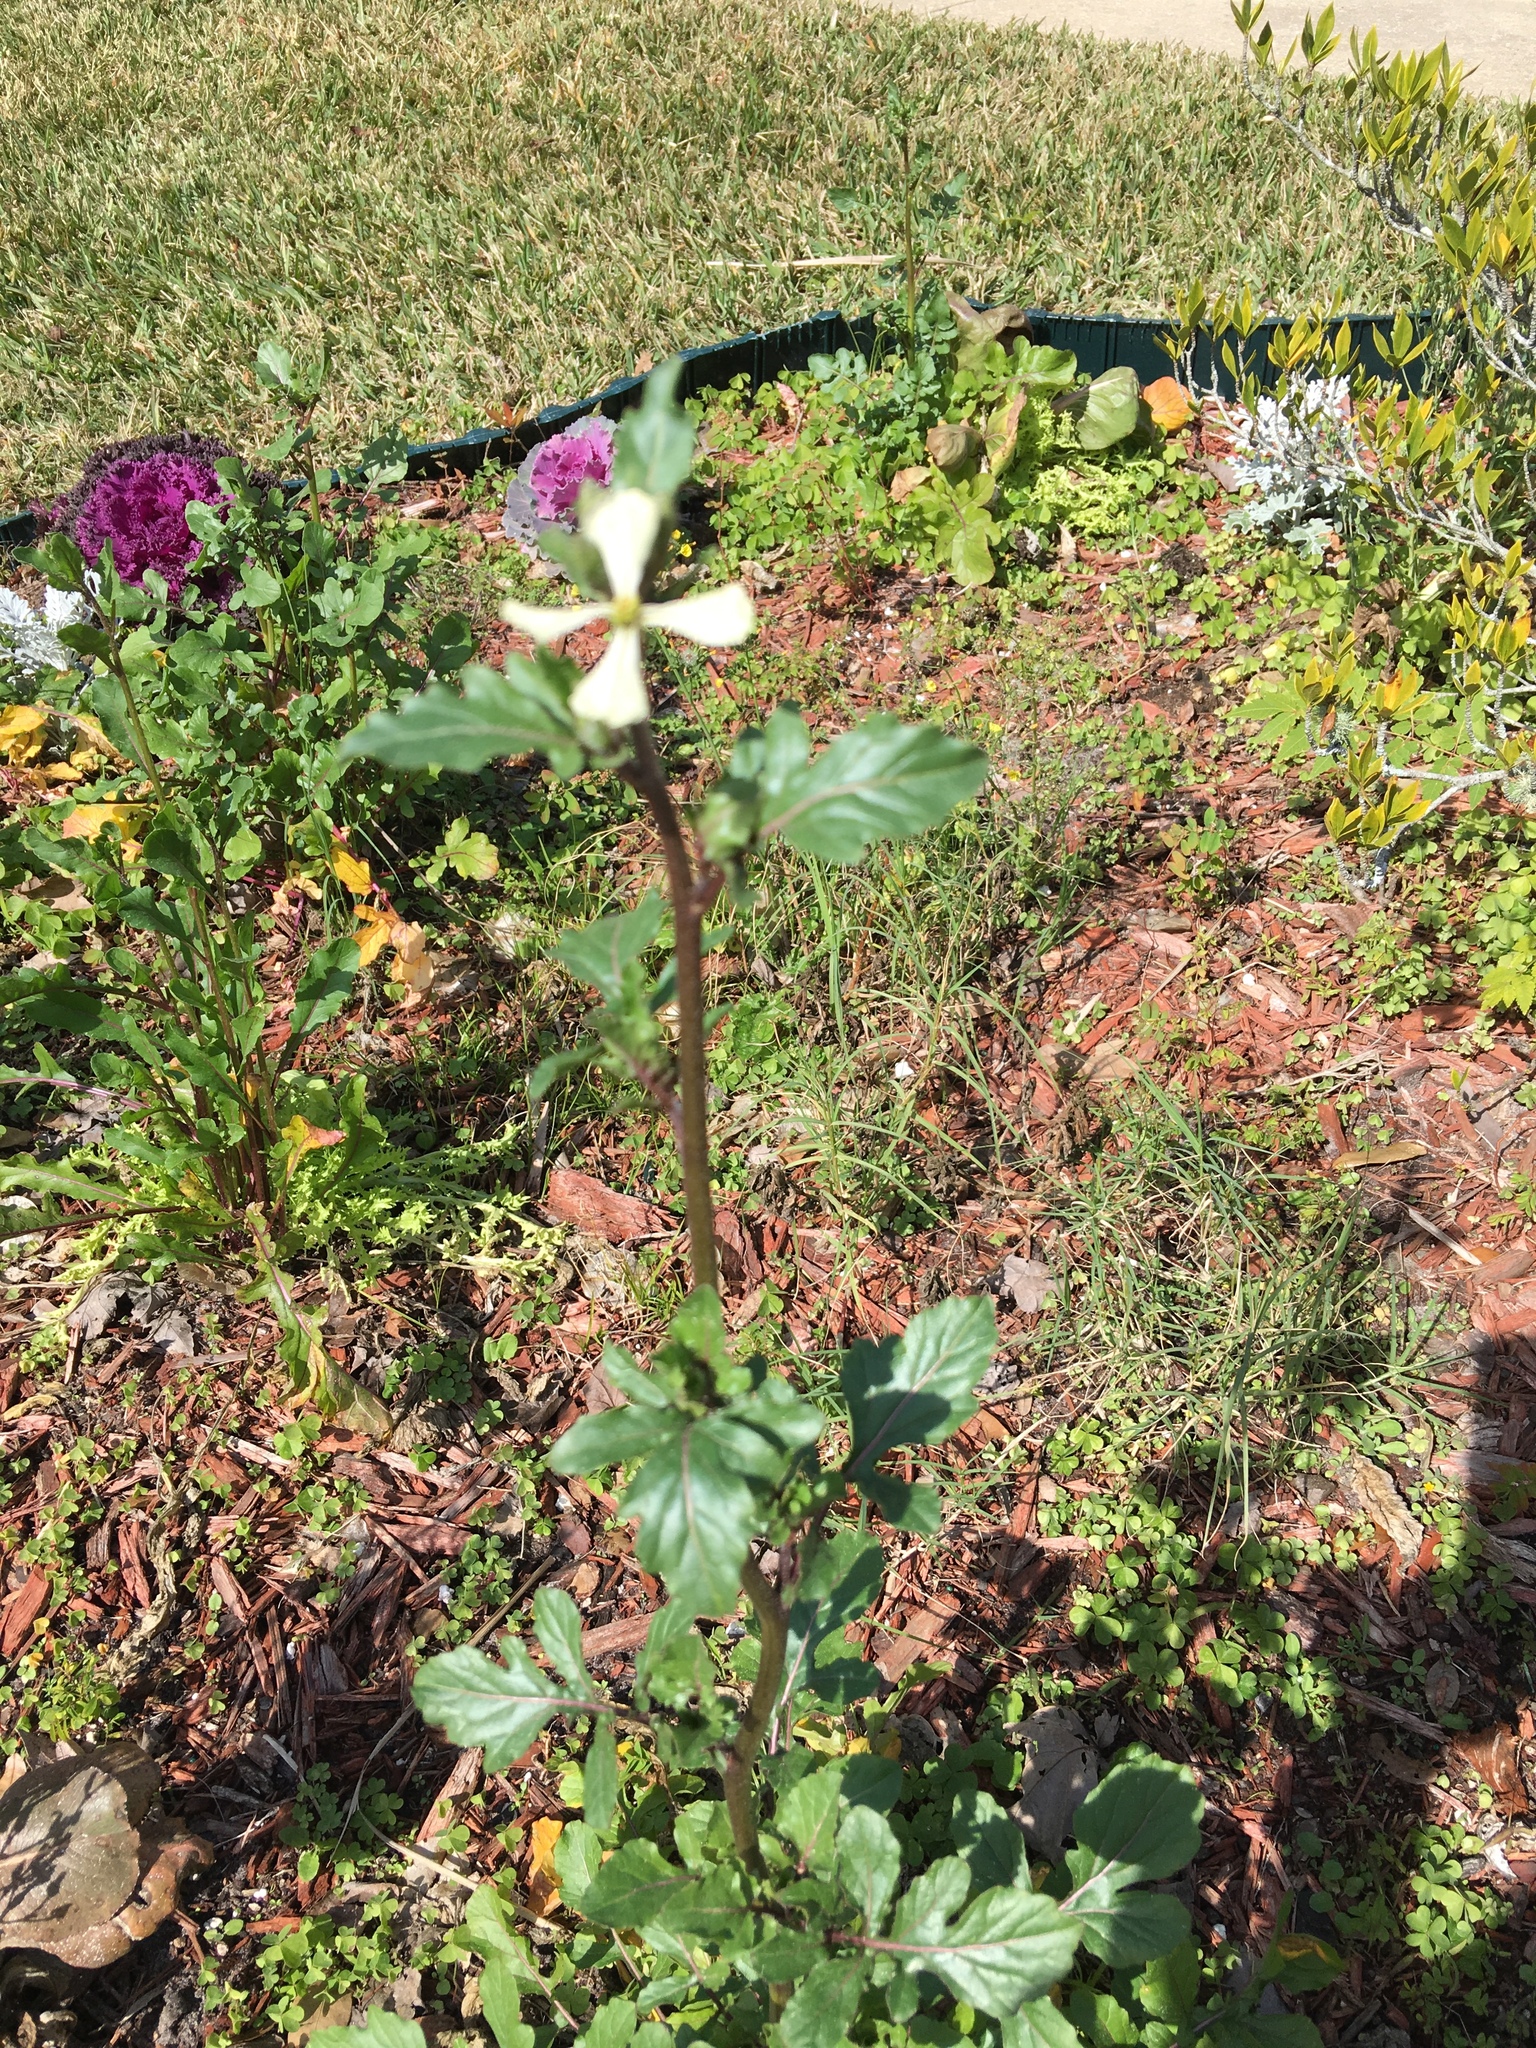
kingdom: Plantae
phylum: Tracheophyta
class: Magnoliopsida
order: Brassicales
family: Brassicaceae
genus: Raphanus
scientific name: Raphanus raphanistrum
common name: Wild radish
